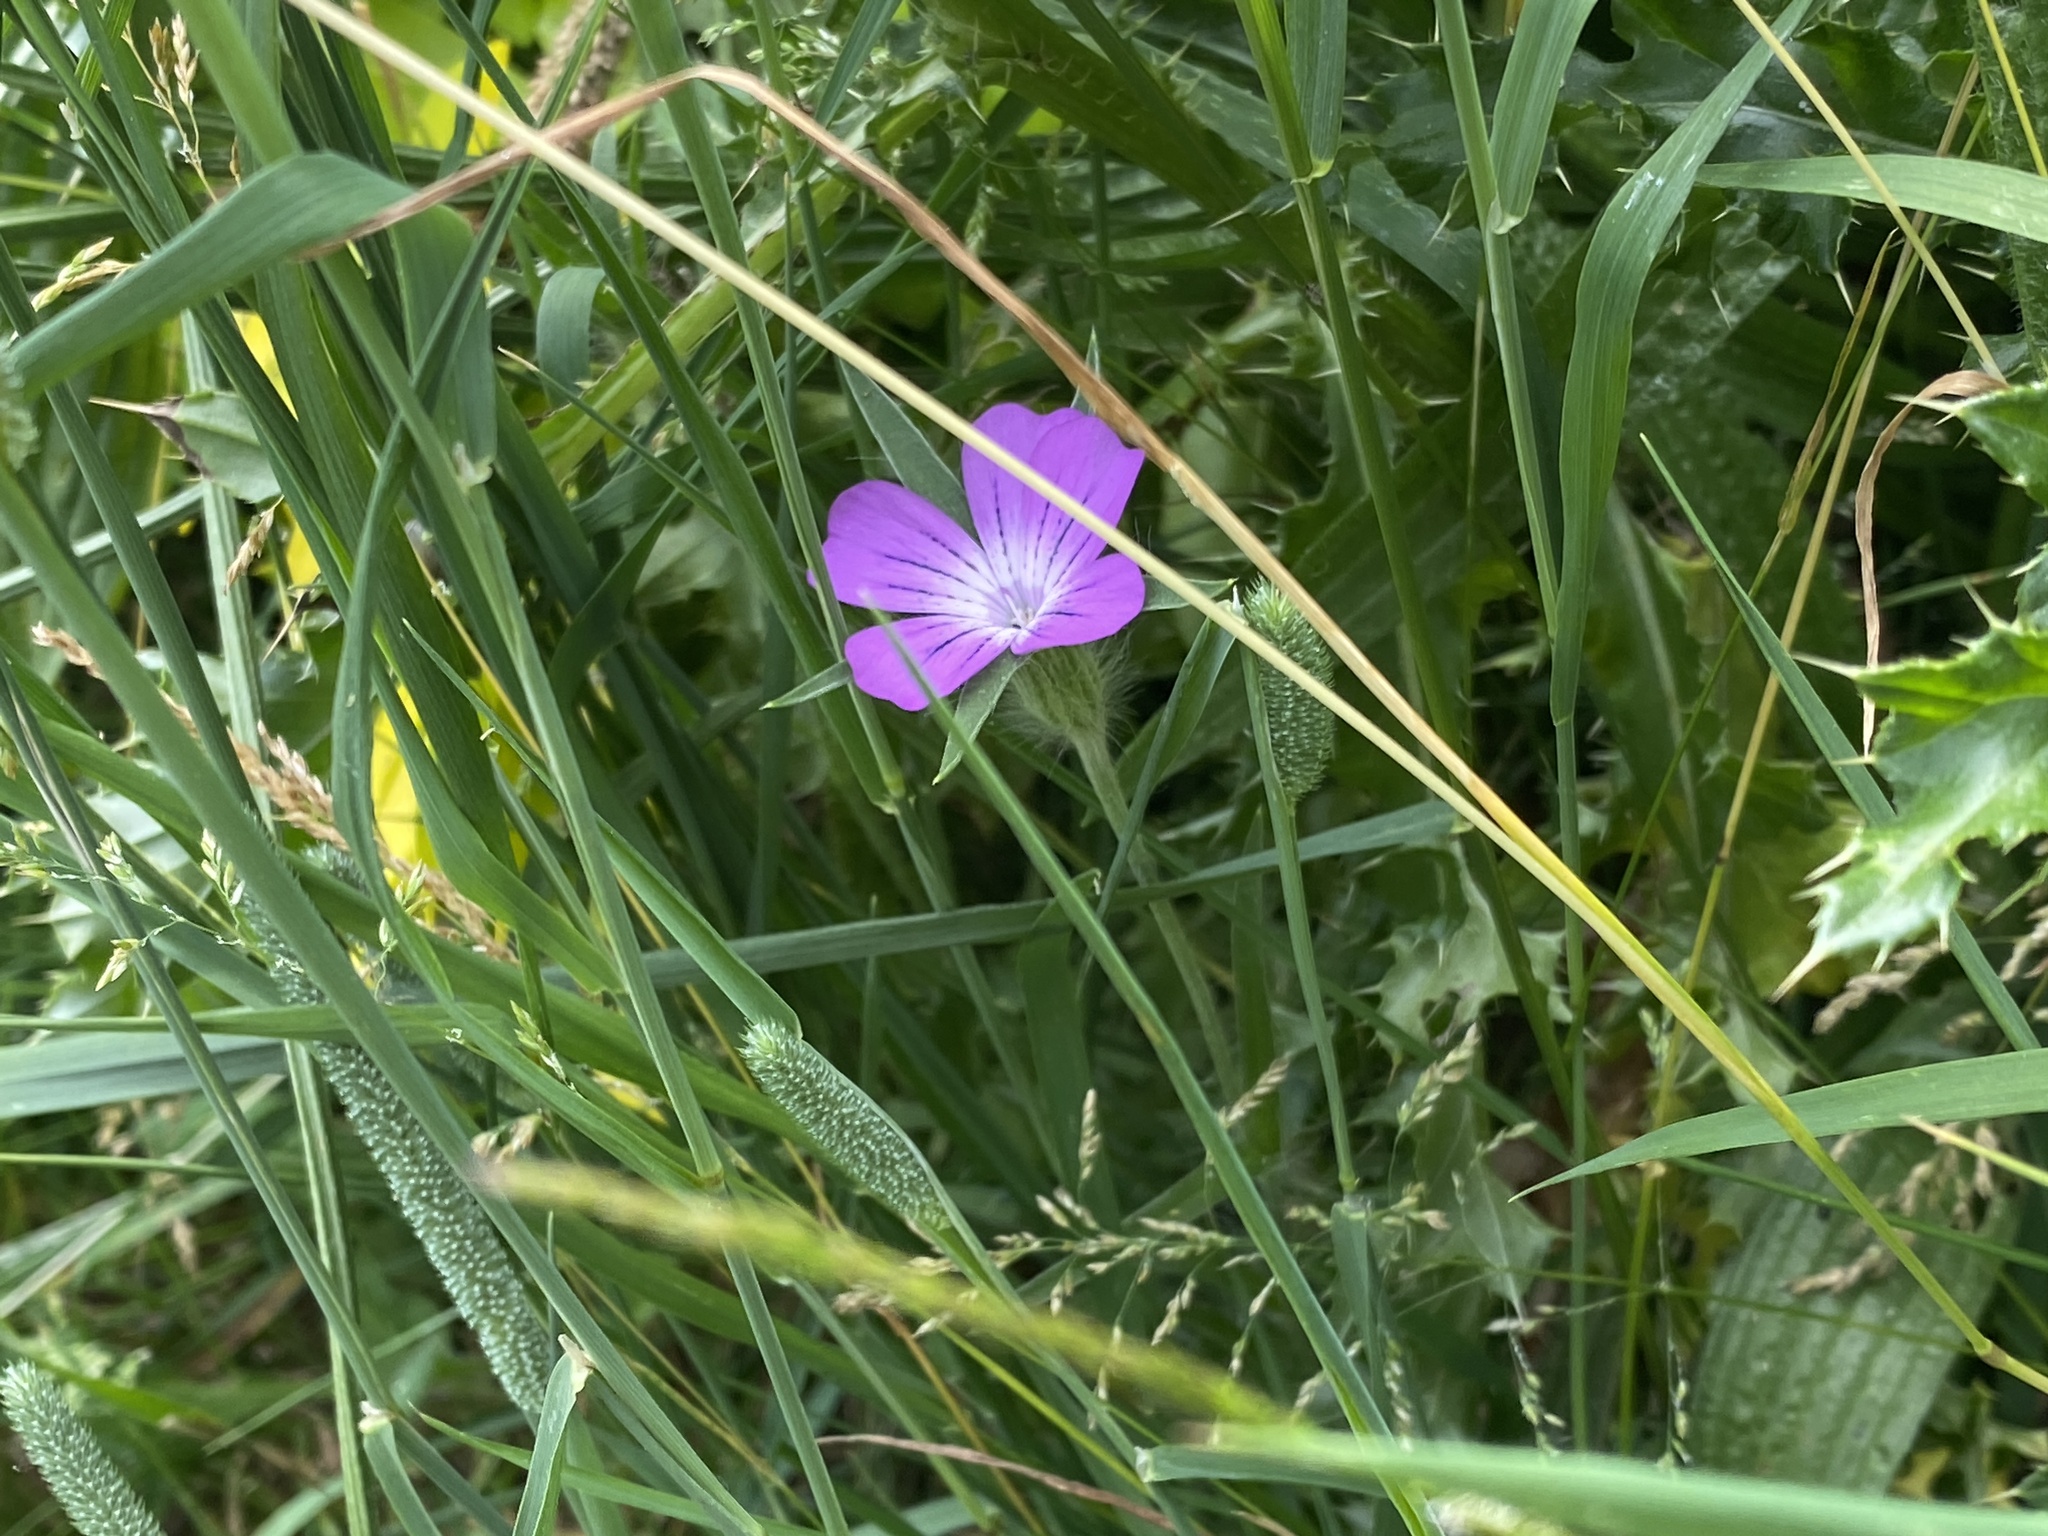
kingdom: Plantae
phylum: Tracheophyta
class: Magnoliopsida
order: Caryophyllales
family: Caryophyllaceae
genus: Agrostemma
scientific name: Agrostemma githago
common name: Common corncockle
